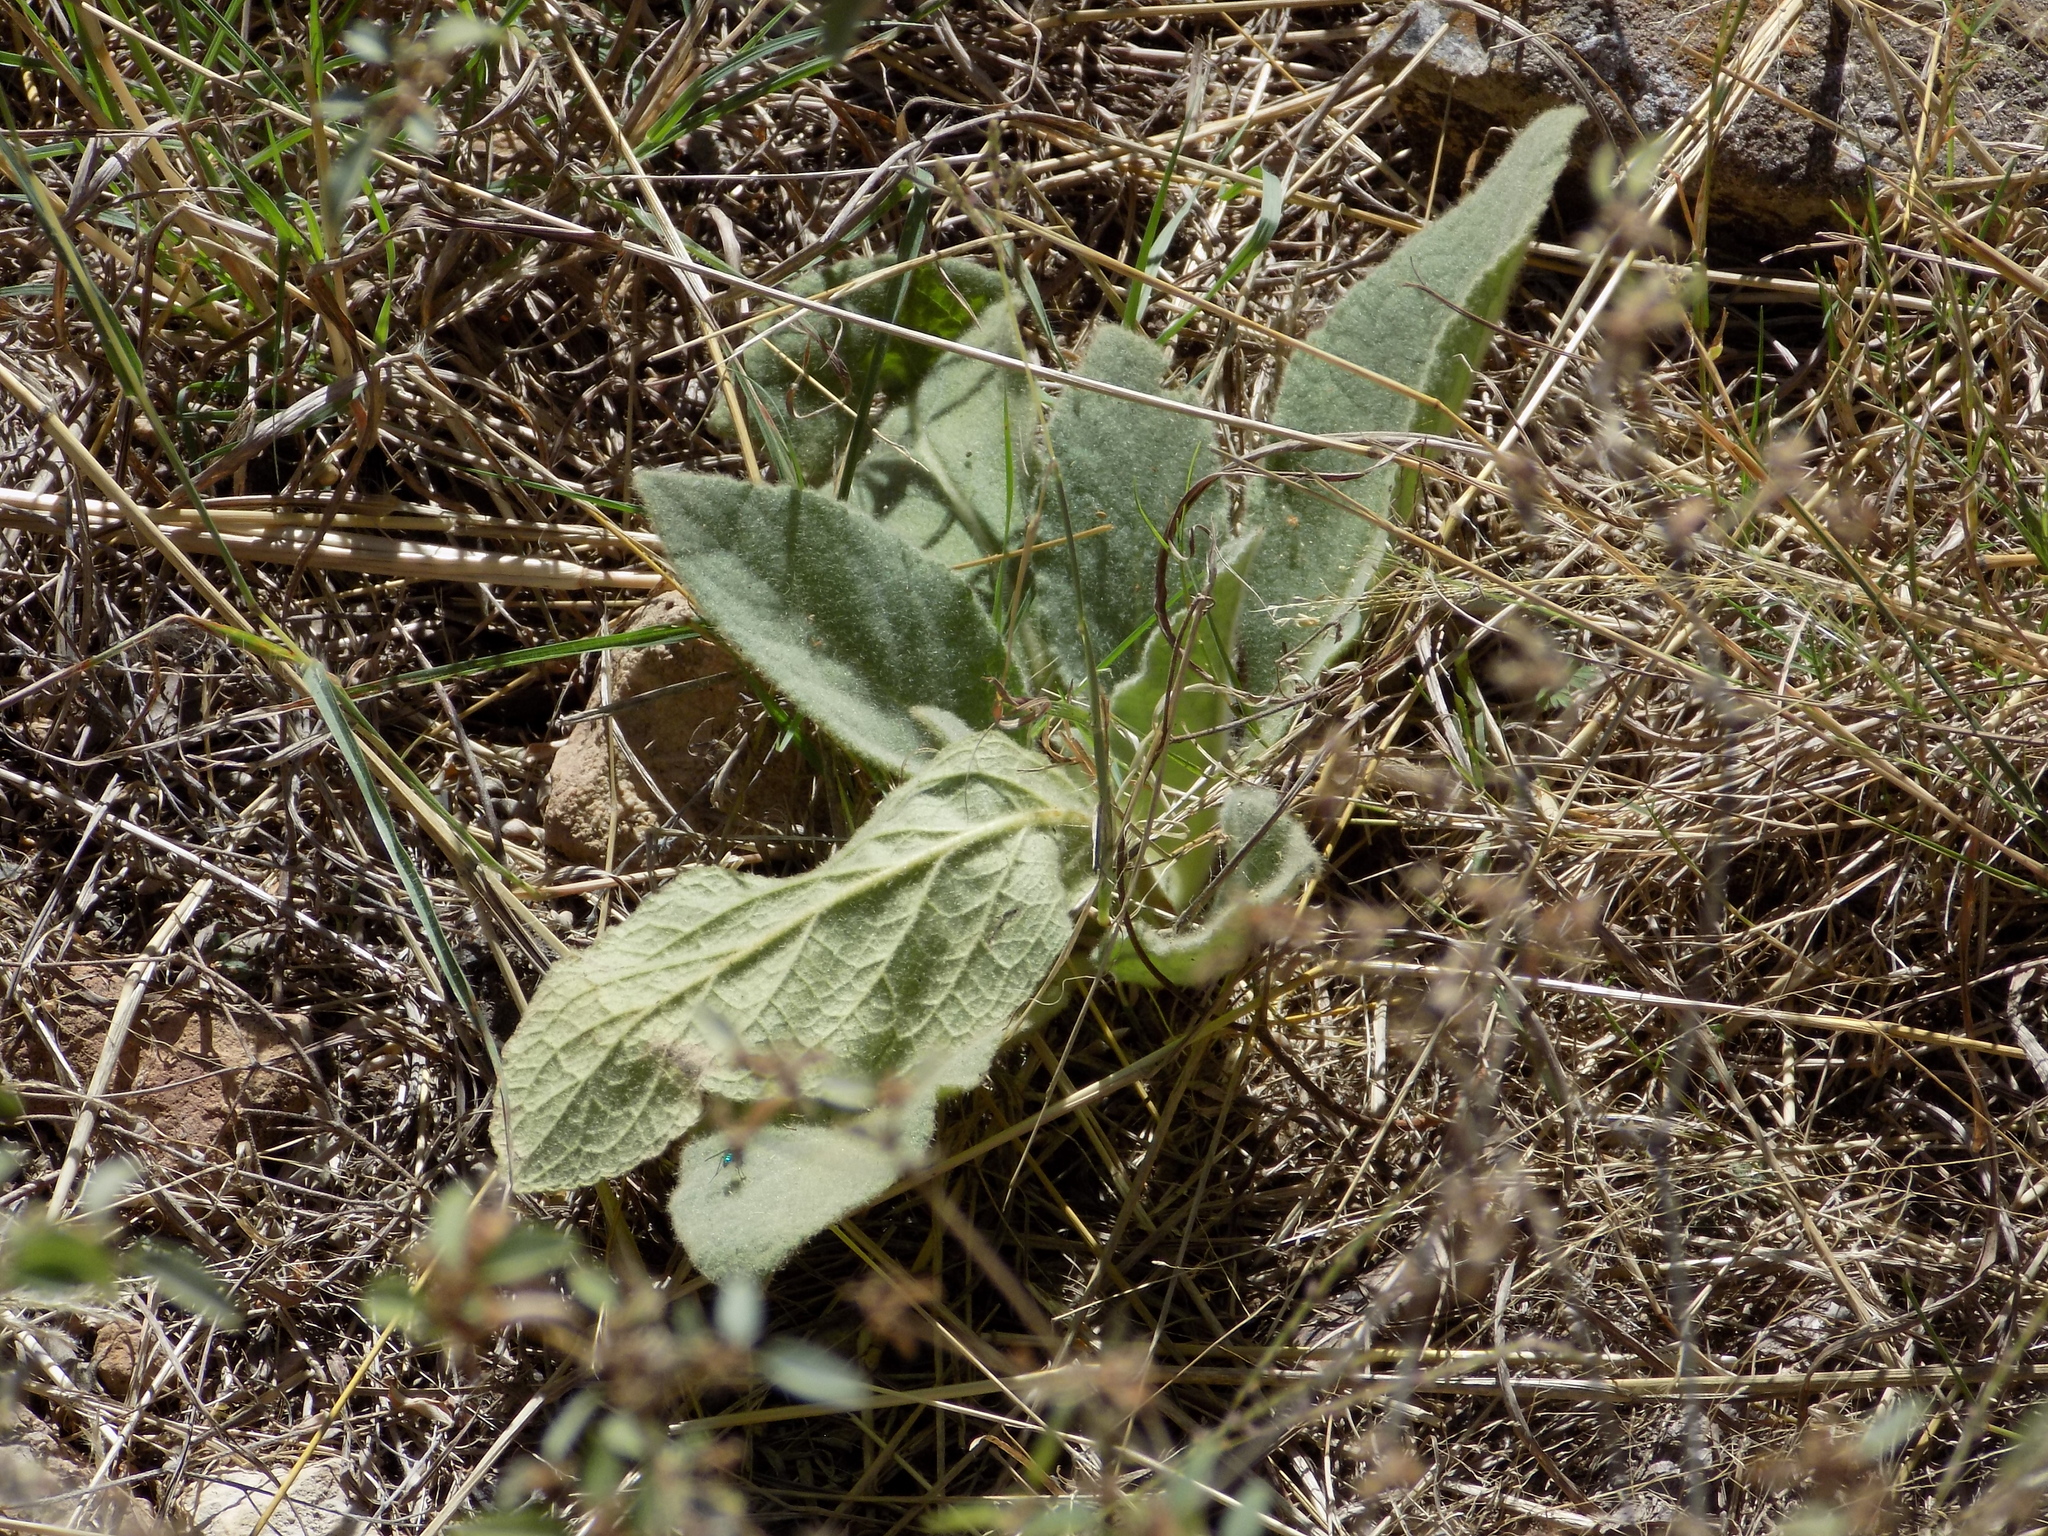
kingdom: Plantae
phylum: Tracheophyta
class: Magnoliopsida
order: Lamiales
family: Scrophulariaceae
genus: Verbascum
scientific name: Verbascum thapsus
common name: Common mullein
